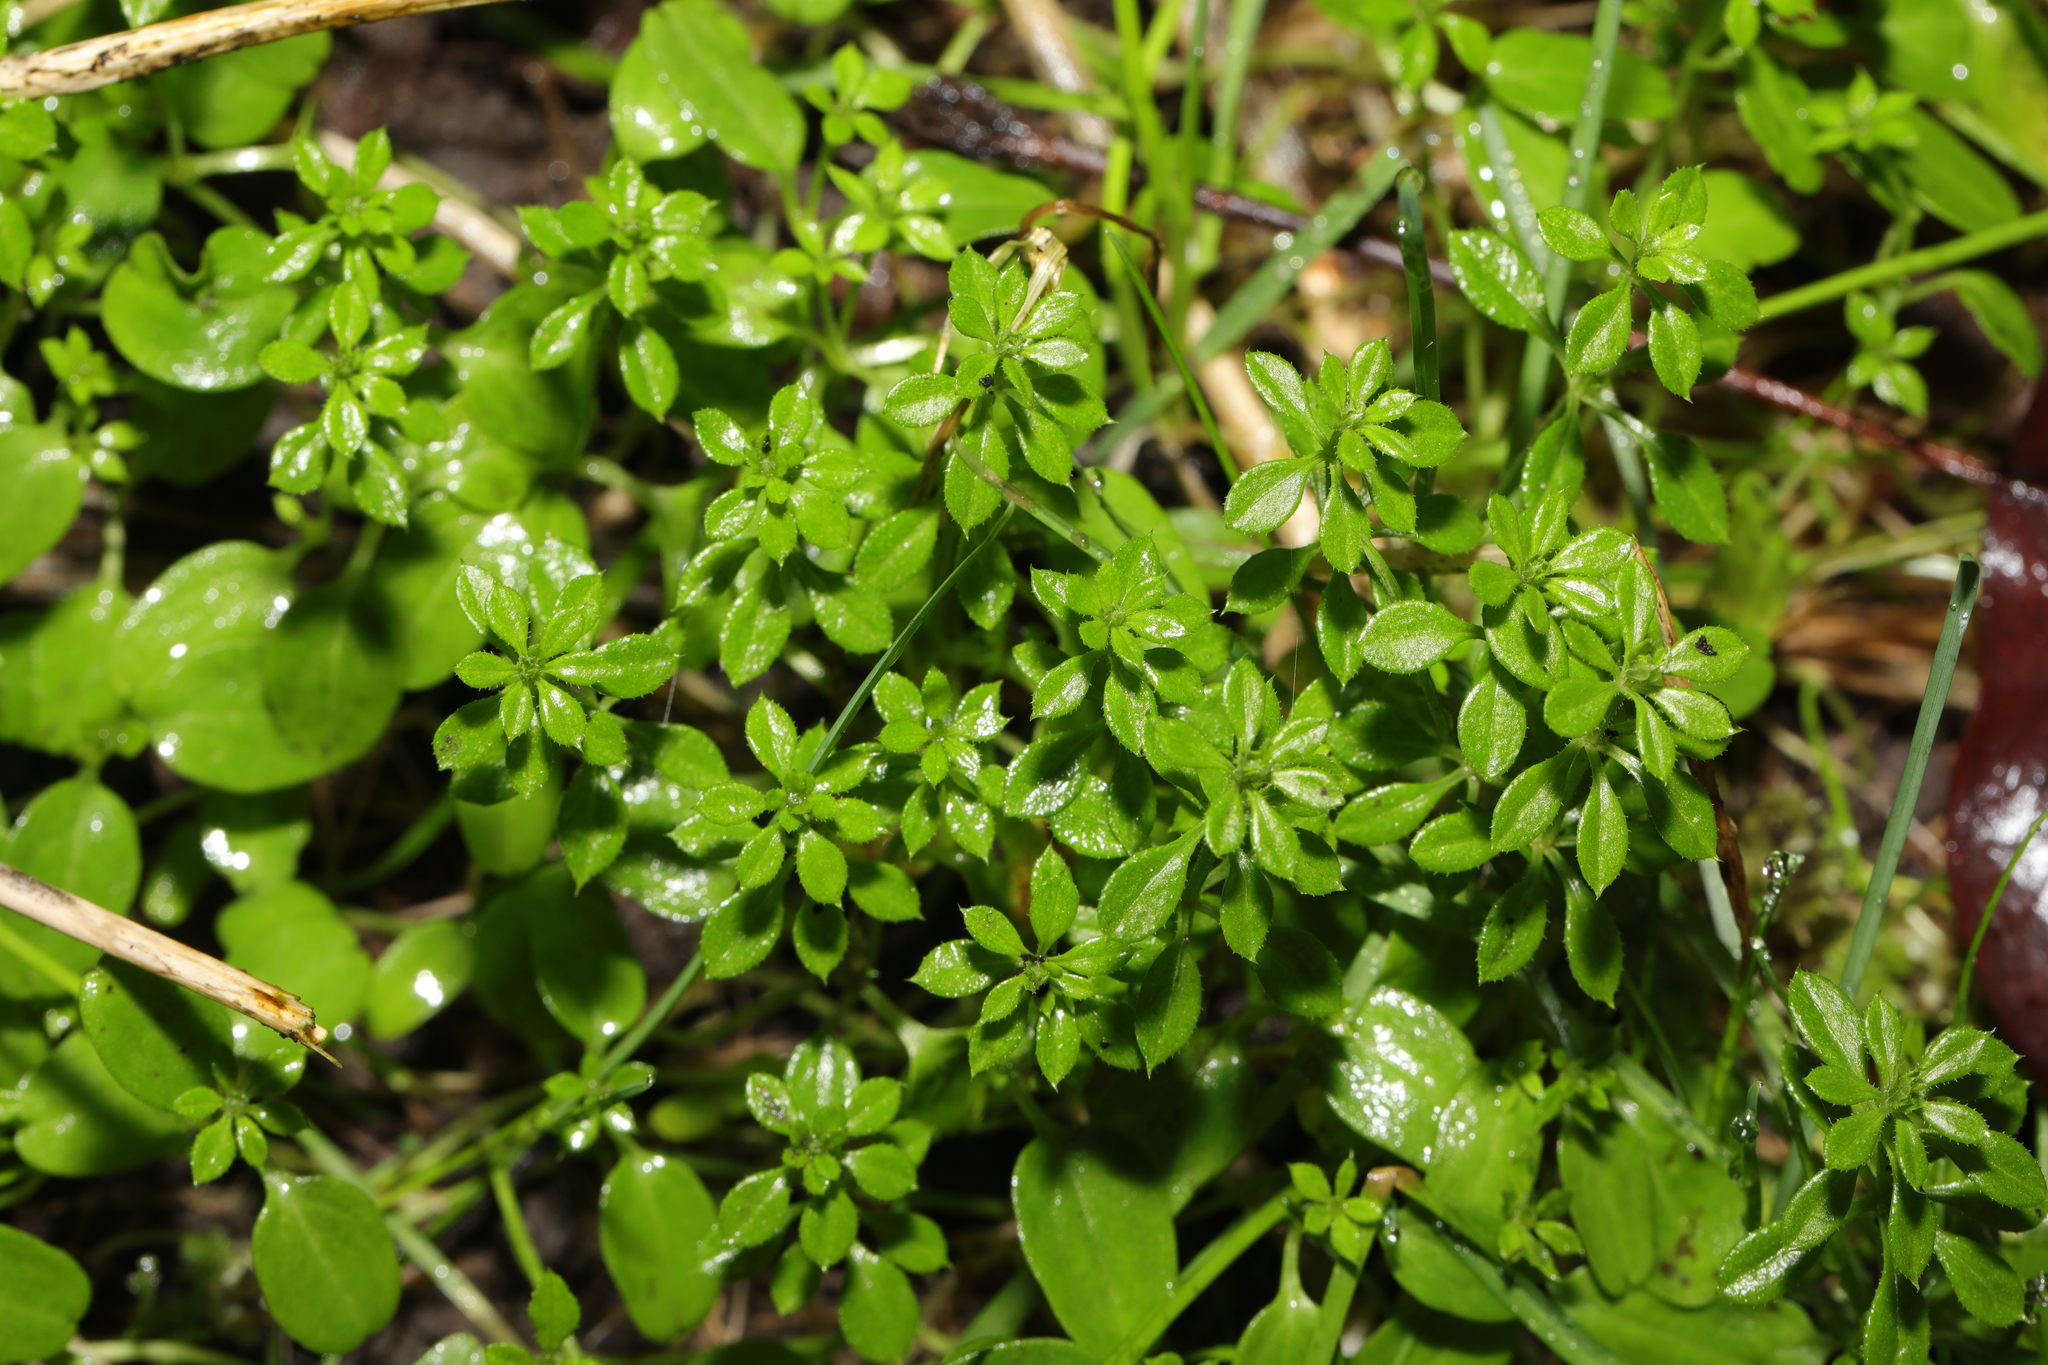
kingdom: Plantae
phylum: Tracheophyta
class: Magnoliopsida
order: Gentianales
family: Rubiaceae
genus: Galium
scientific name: Galium aparine
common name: Cleavers
